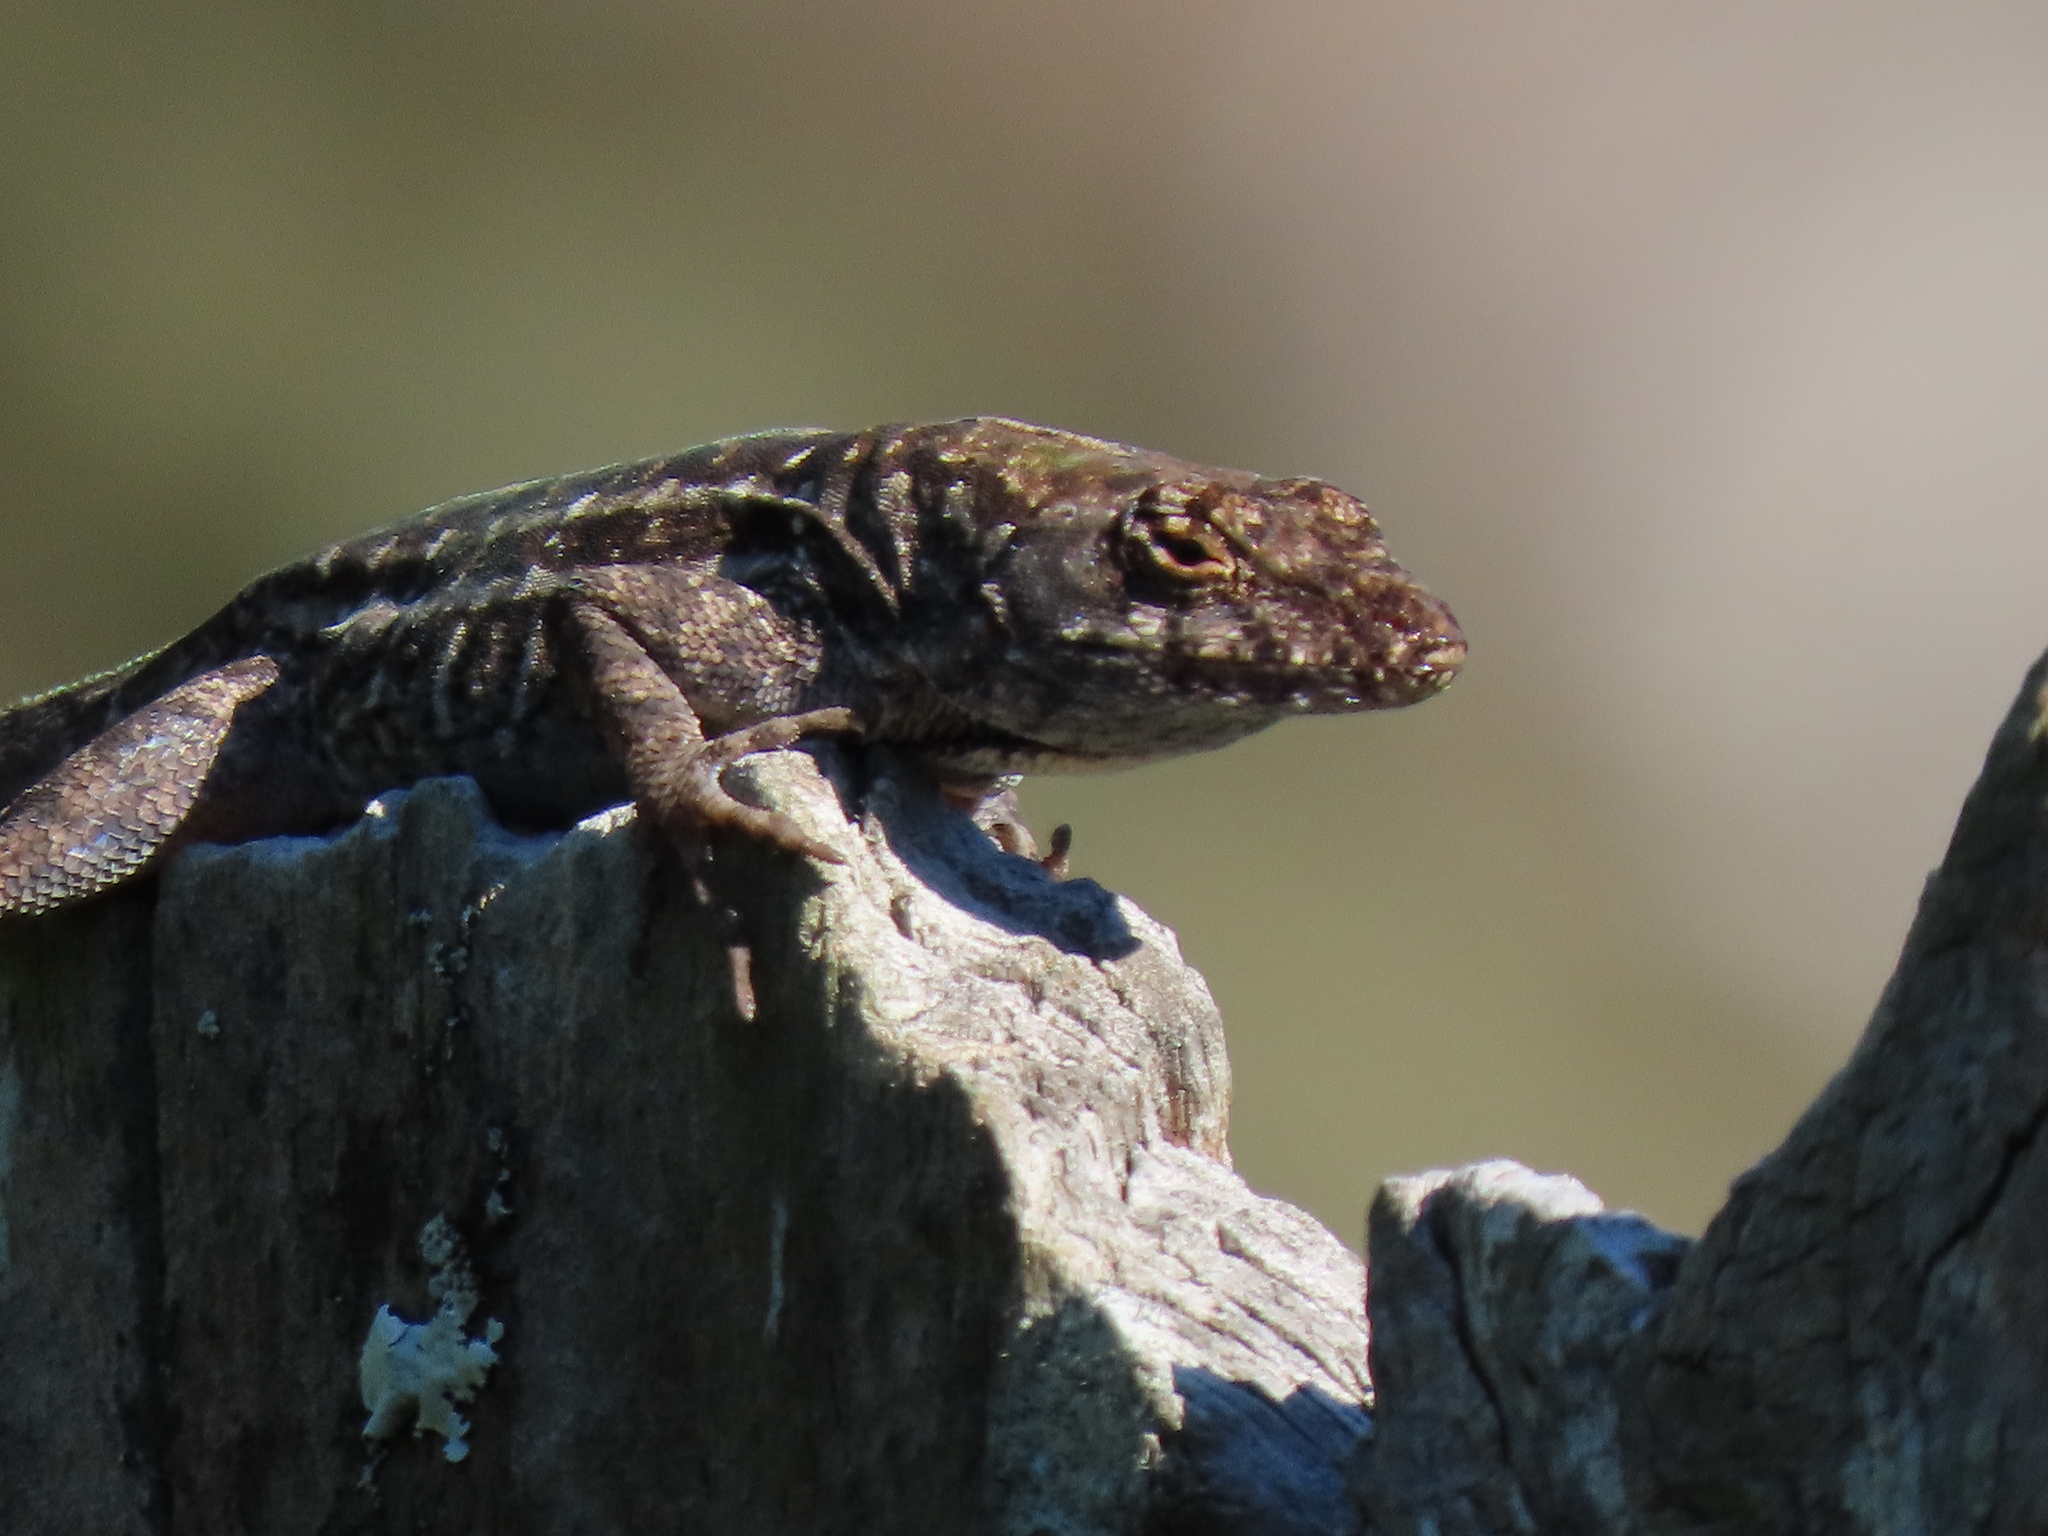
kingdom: Animalia
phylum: Chordata
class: Squamata
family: Dactyloidae
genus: Anolis
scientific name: Anolis sagrei
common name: Brown anole
